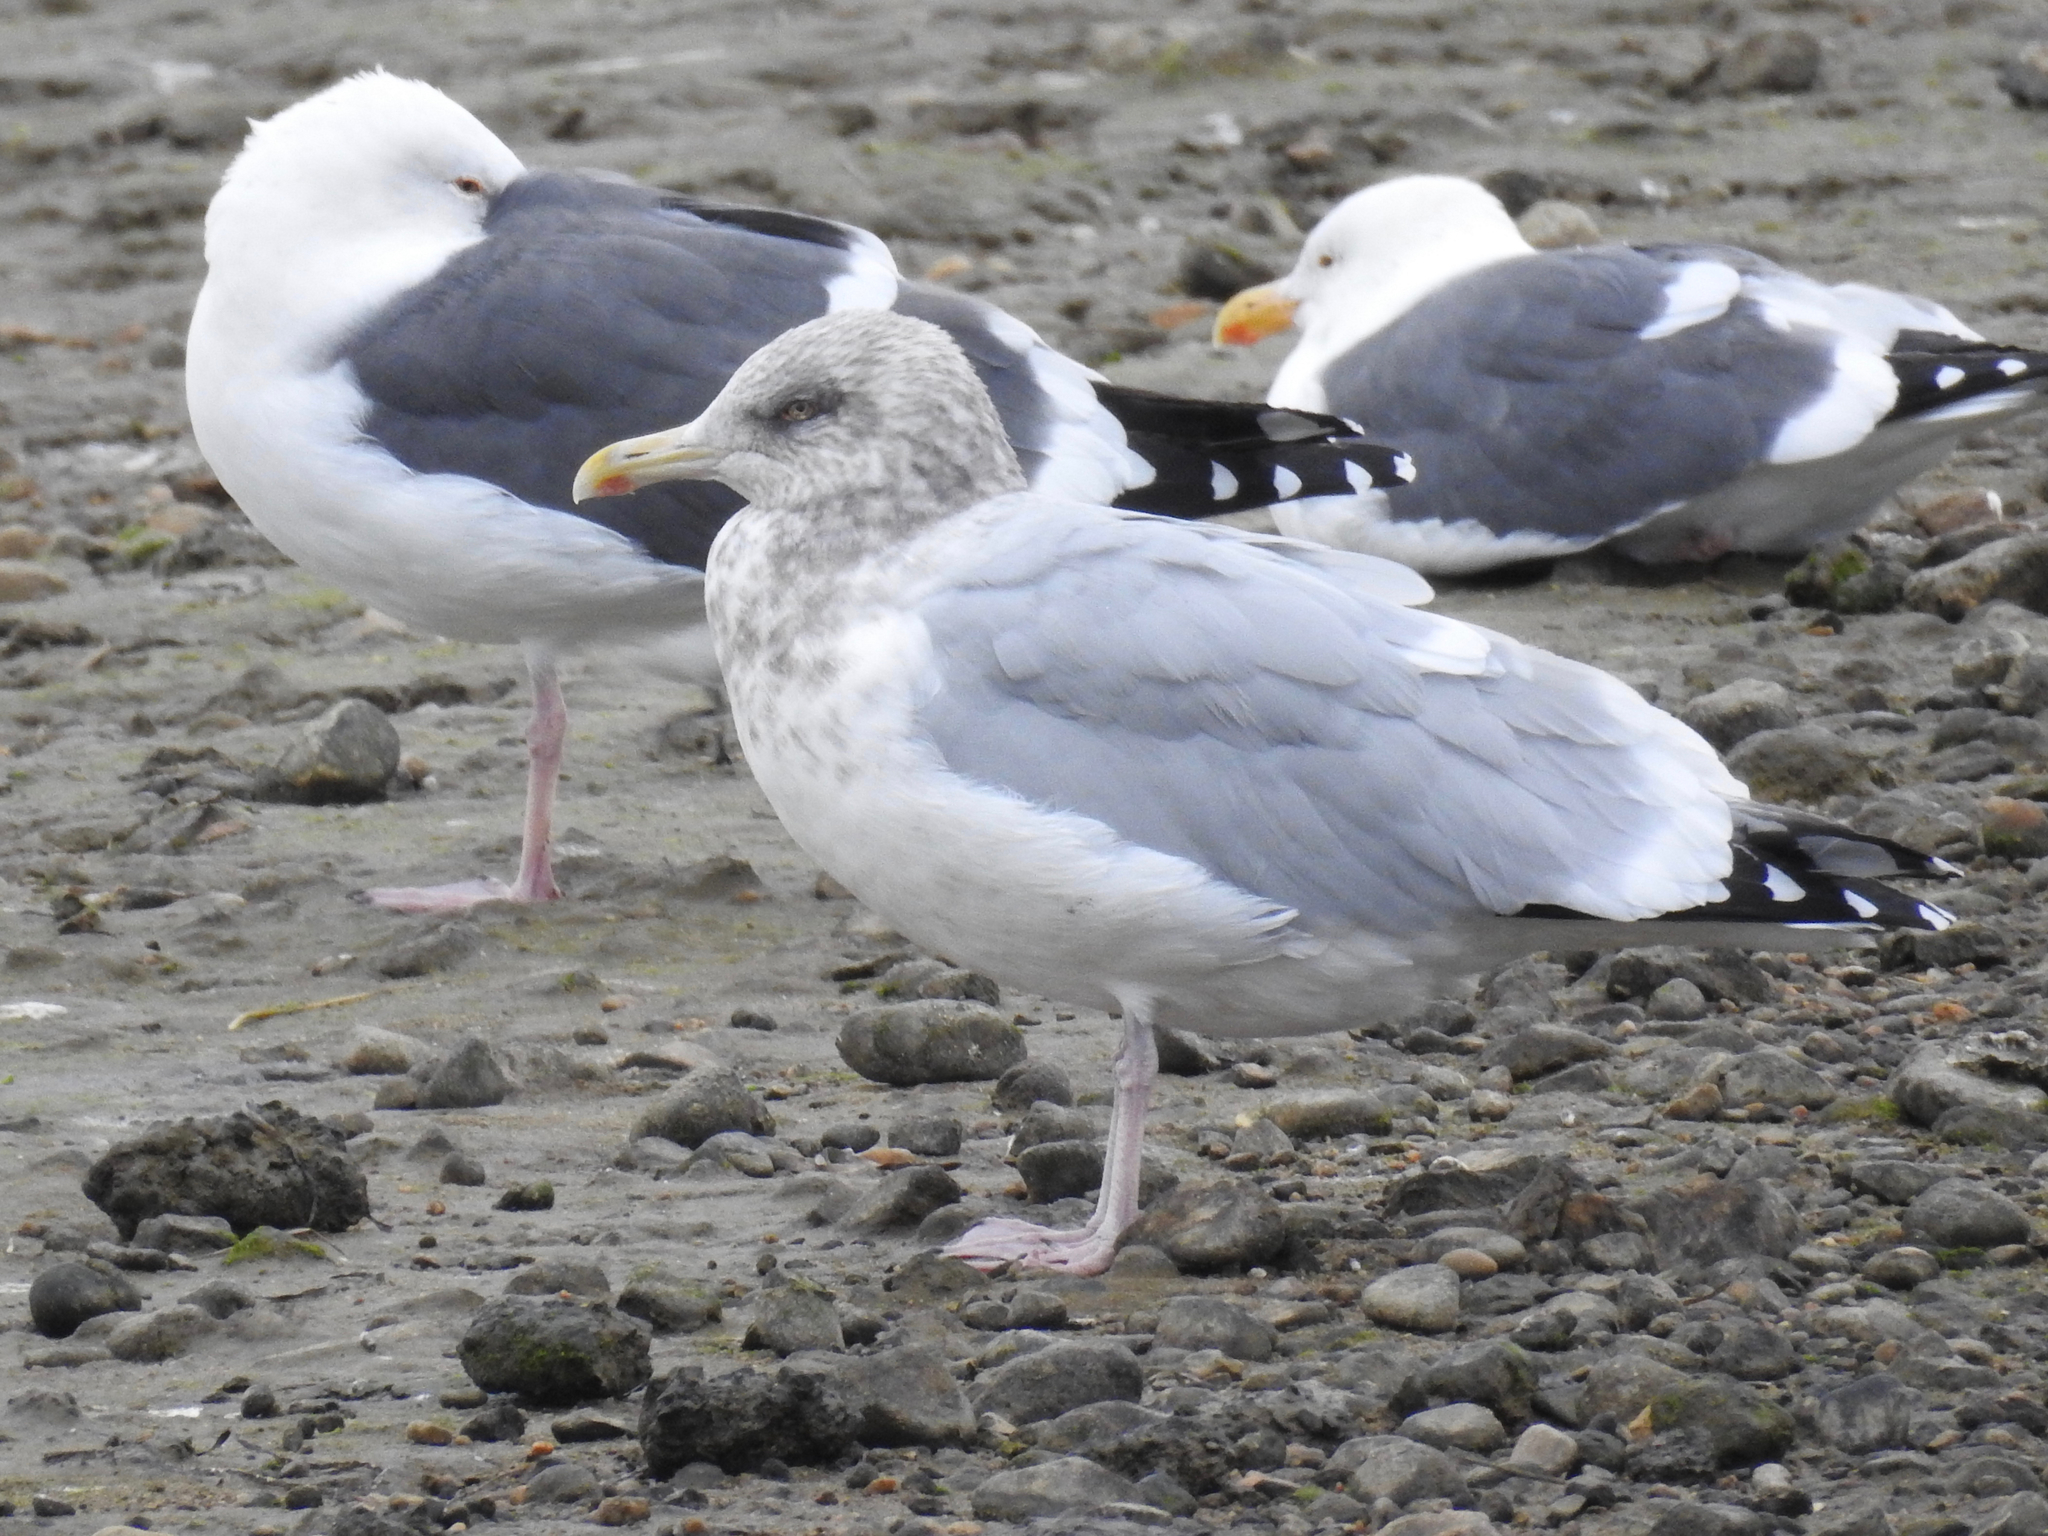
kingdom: Animalia
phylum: Chordata
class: Aves
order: Charadriiformes
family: Laridae
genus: Larus
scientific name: Larus argentatus
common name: Herring gull
